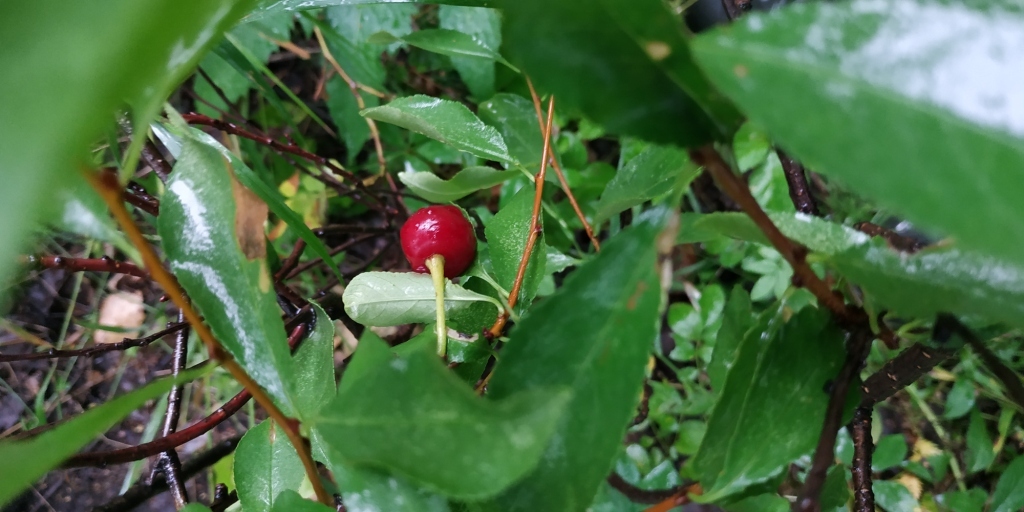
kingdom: Plantae
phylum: Tracheophyta
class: Magnoliopsida
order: Rosales
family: Rosaceae
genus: Prunus
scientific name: Prunus fruticosa
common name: European dwarf cherry
